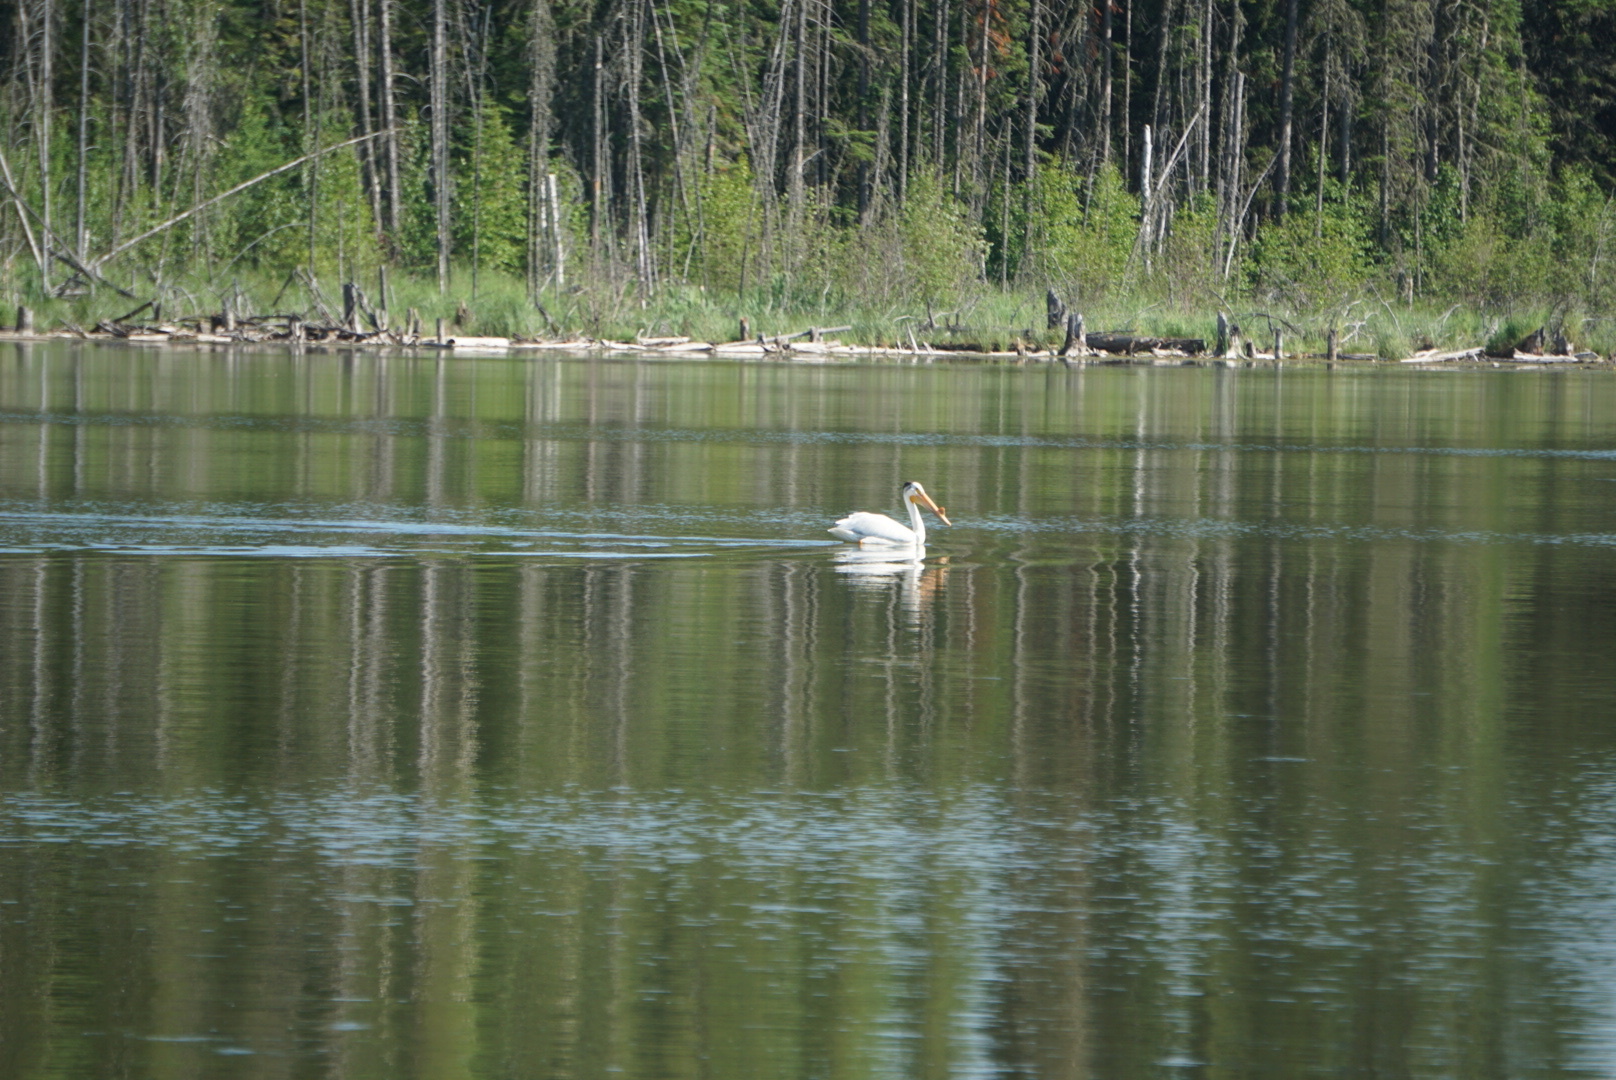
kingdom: Animalia
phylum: Chordata
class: Aves
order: Pelecaniformes
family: Pelecanidae
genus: Pelecanus
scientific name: Pelecanus erythrorhynchos
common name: American white pelican
